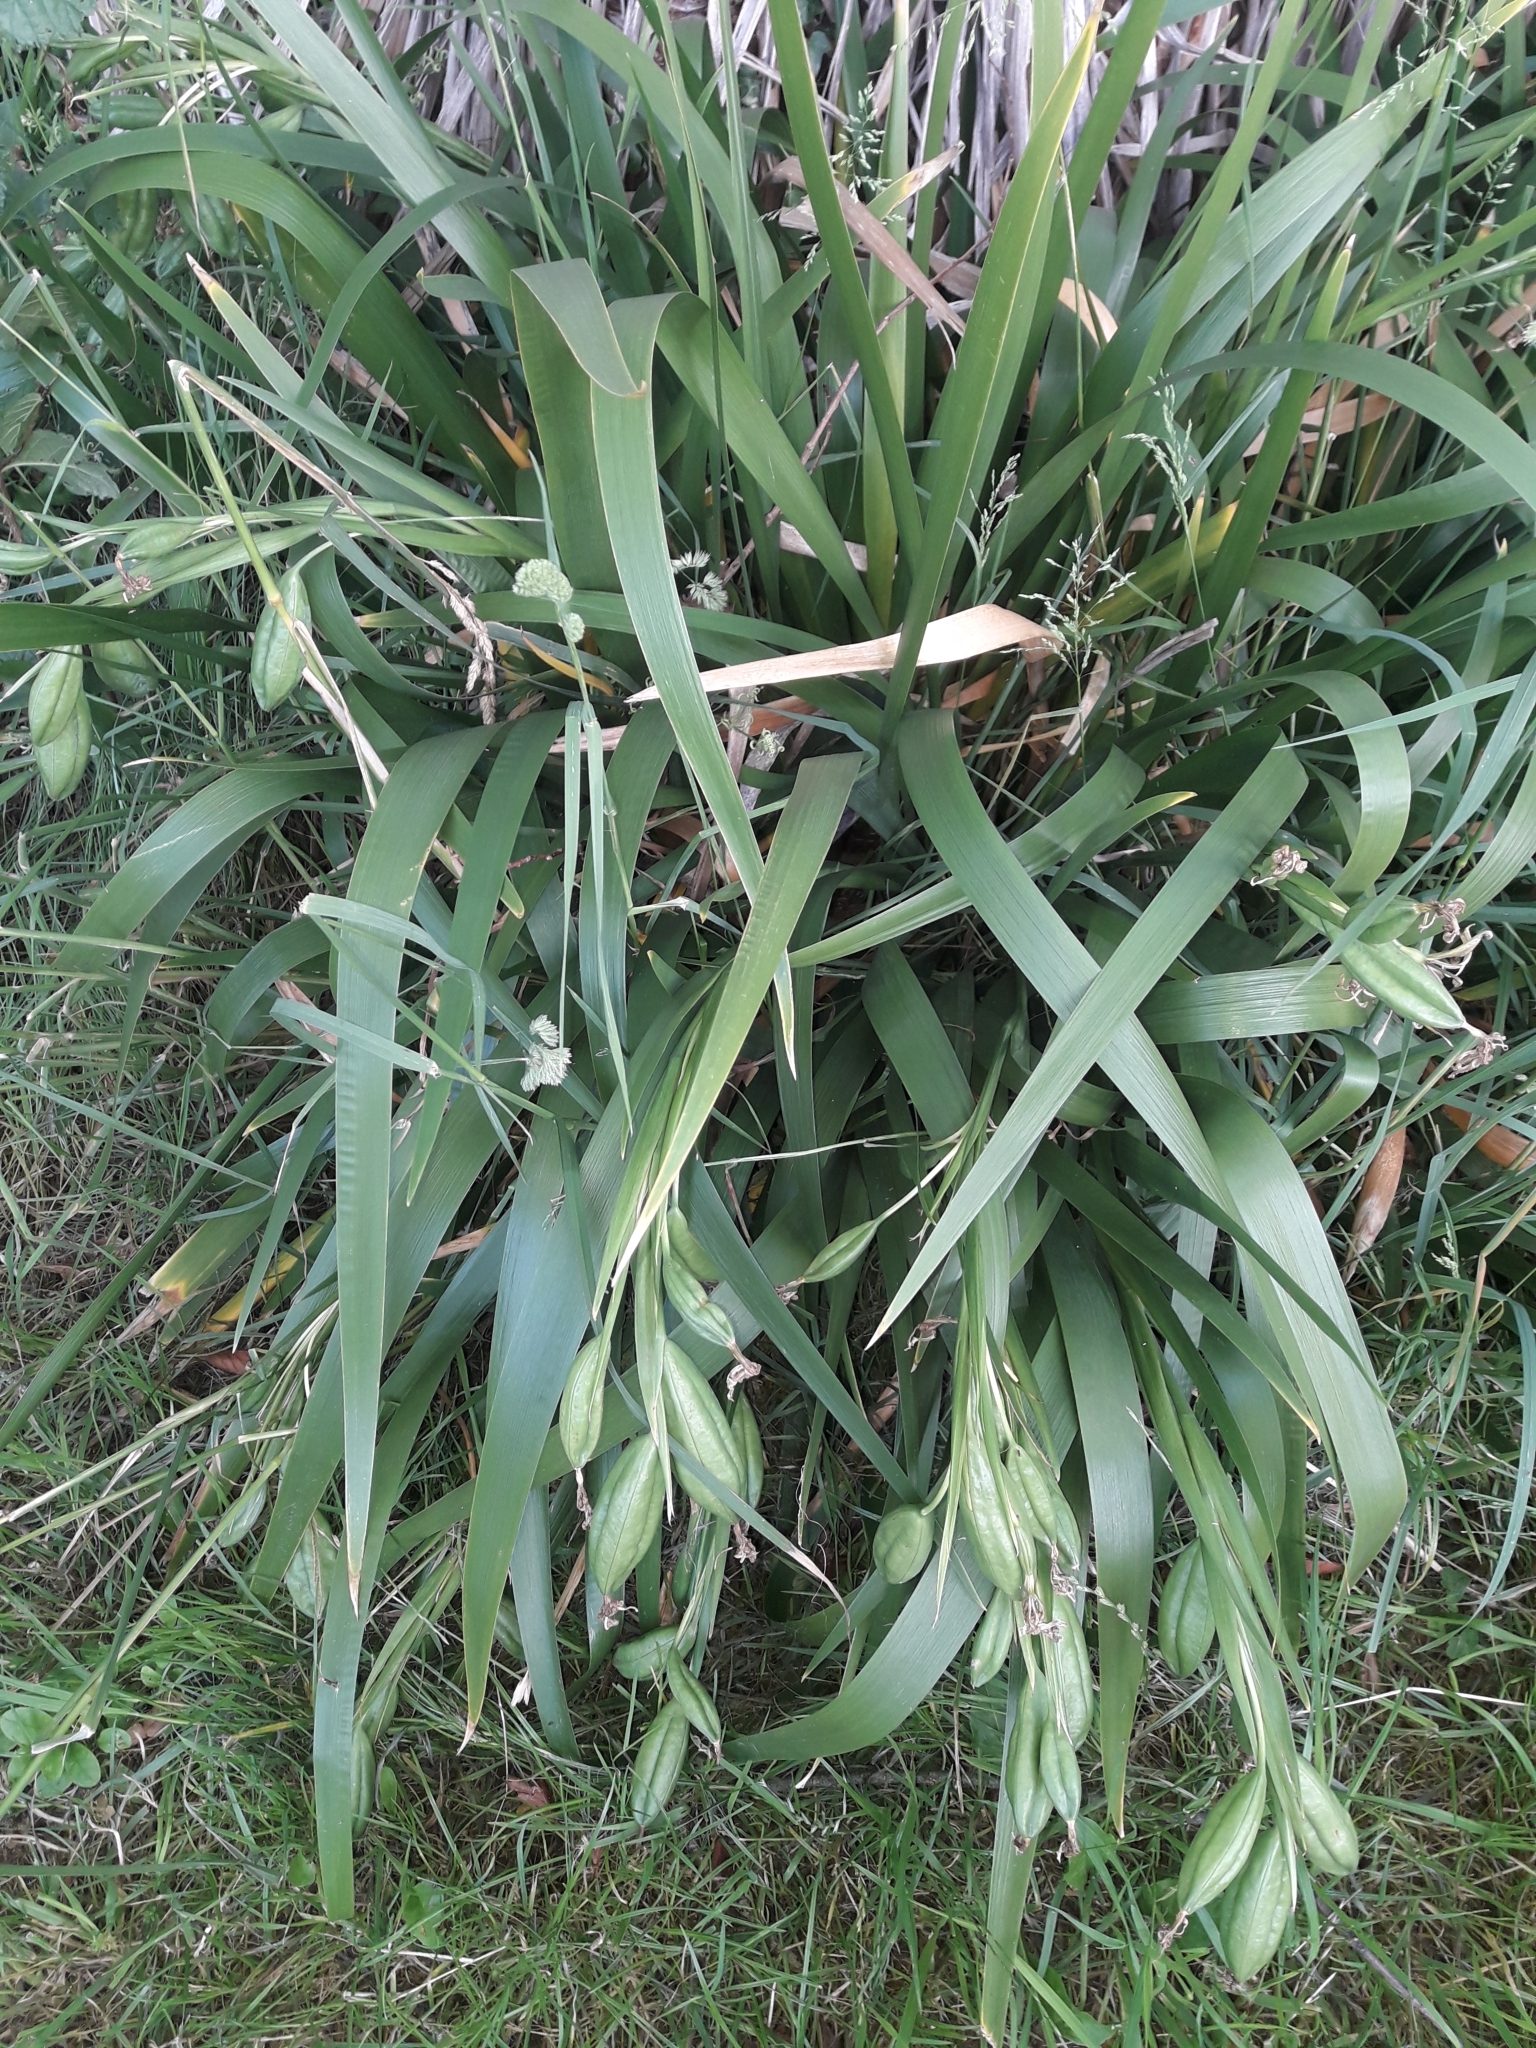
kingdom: Plantae
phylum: Tracheophyta
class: Liliopsida
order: Asparagales
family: Iridaceae
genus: Iris
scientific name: Iris foetidissima
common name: Stinking iris
